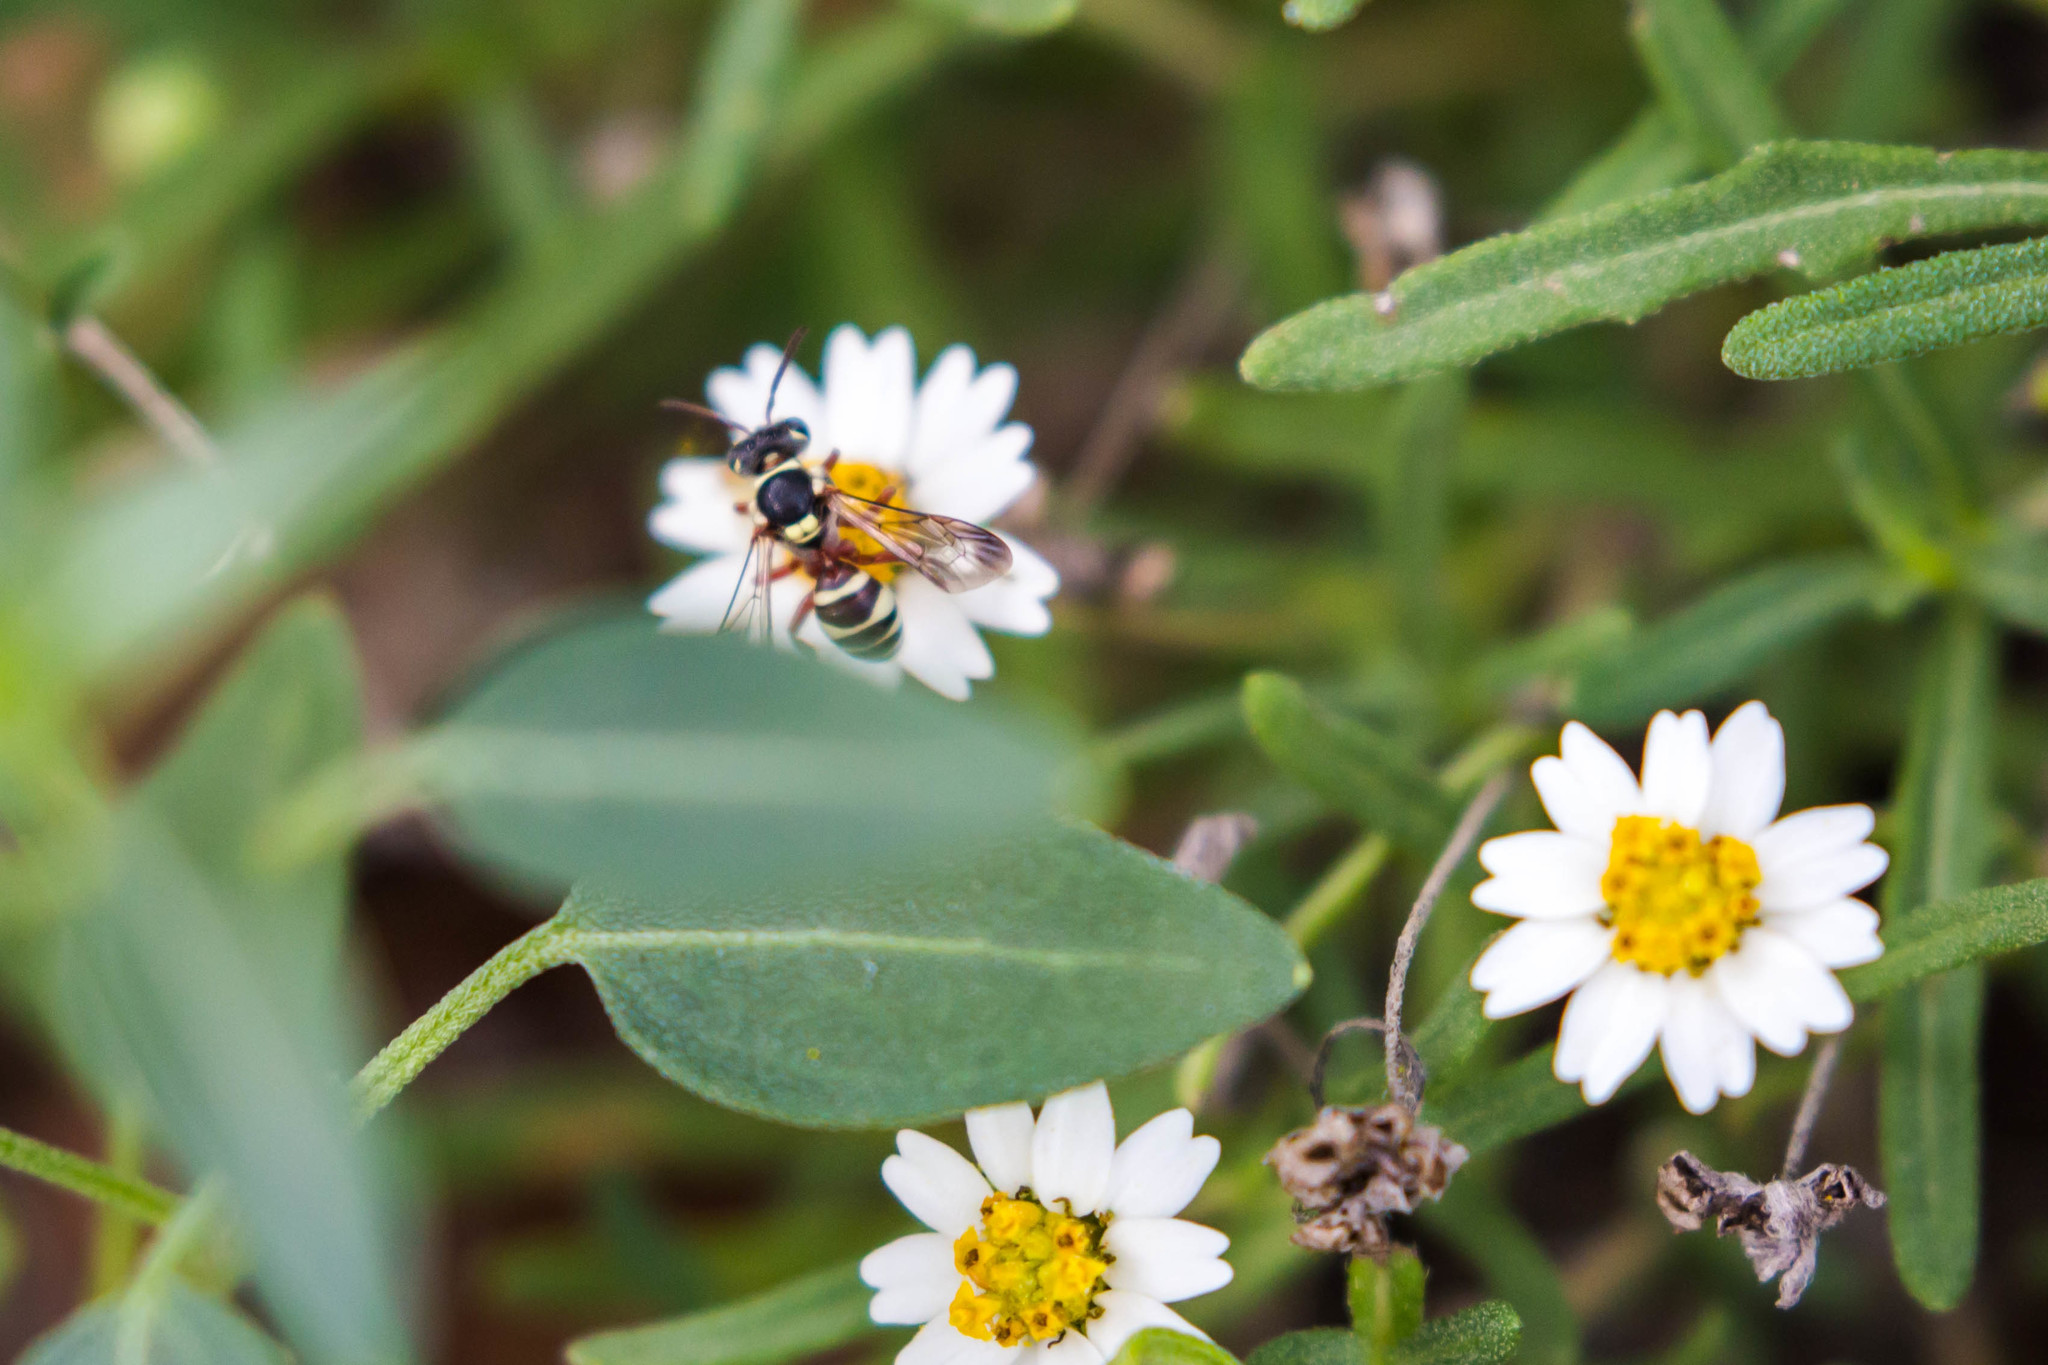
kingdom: Animalia
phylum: Arthropoda
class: Insecta
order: Hymenoptera
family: Apidae
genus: Nomada
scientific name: Nomada texana
